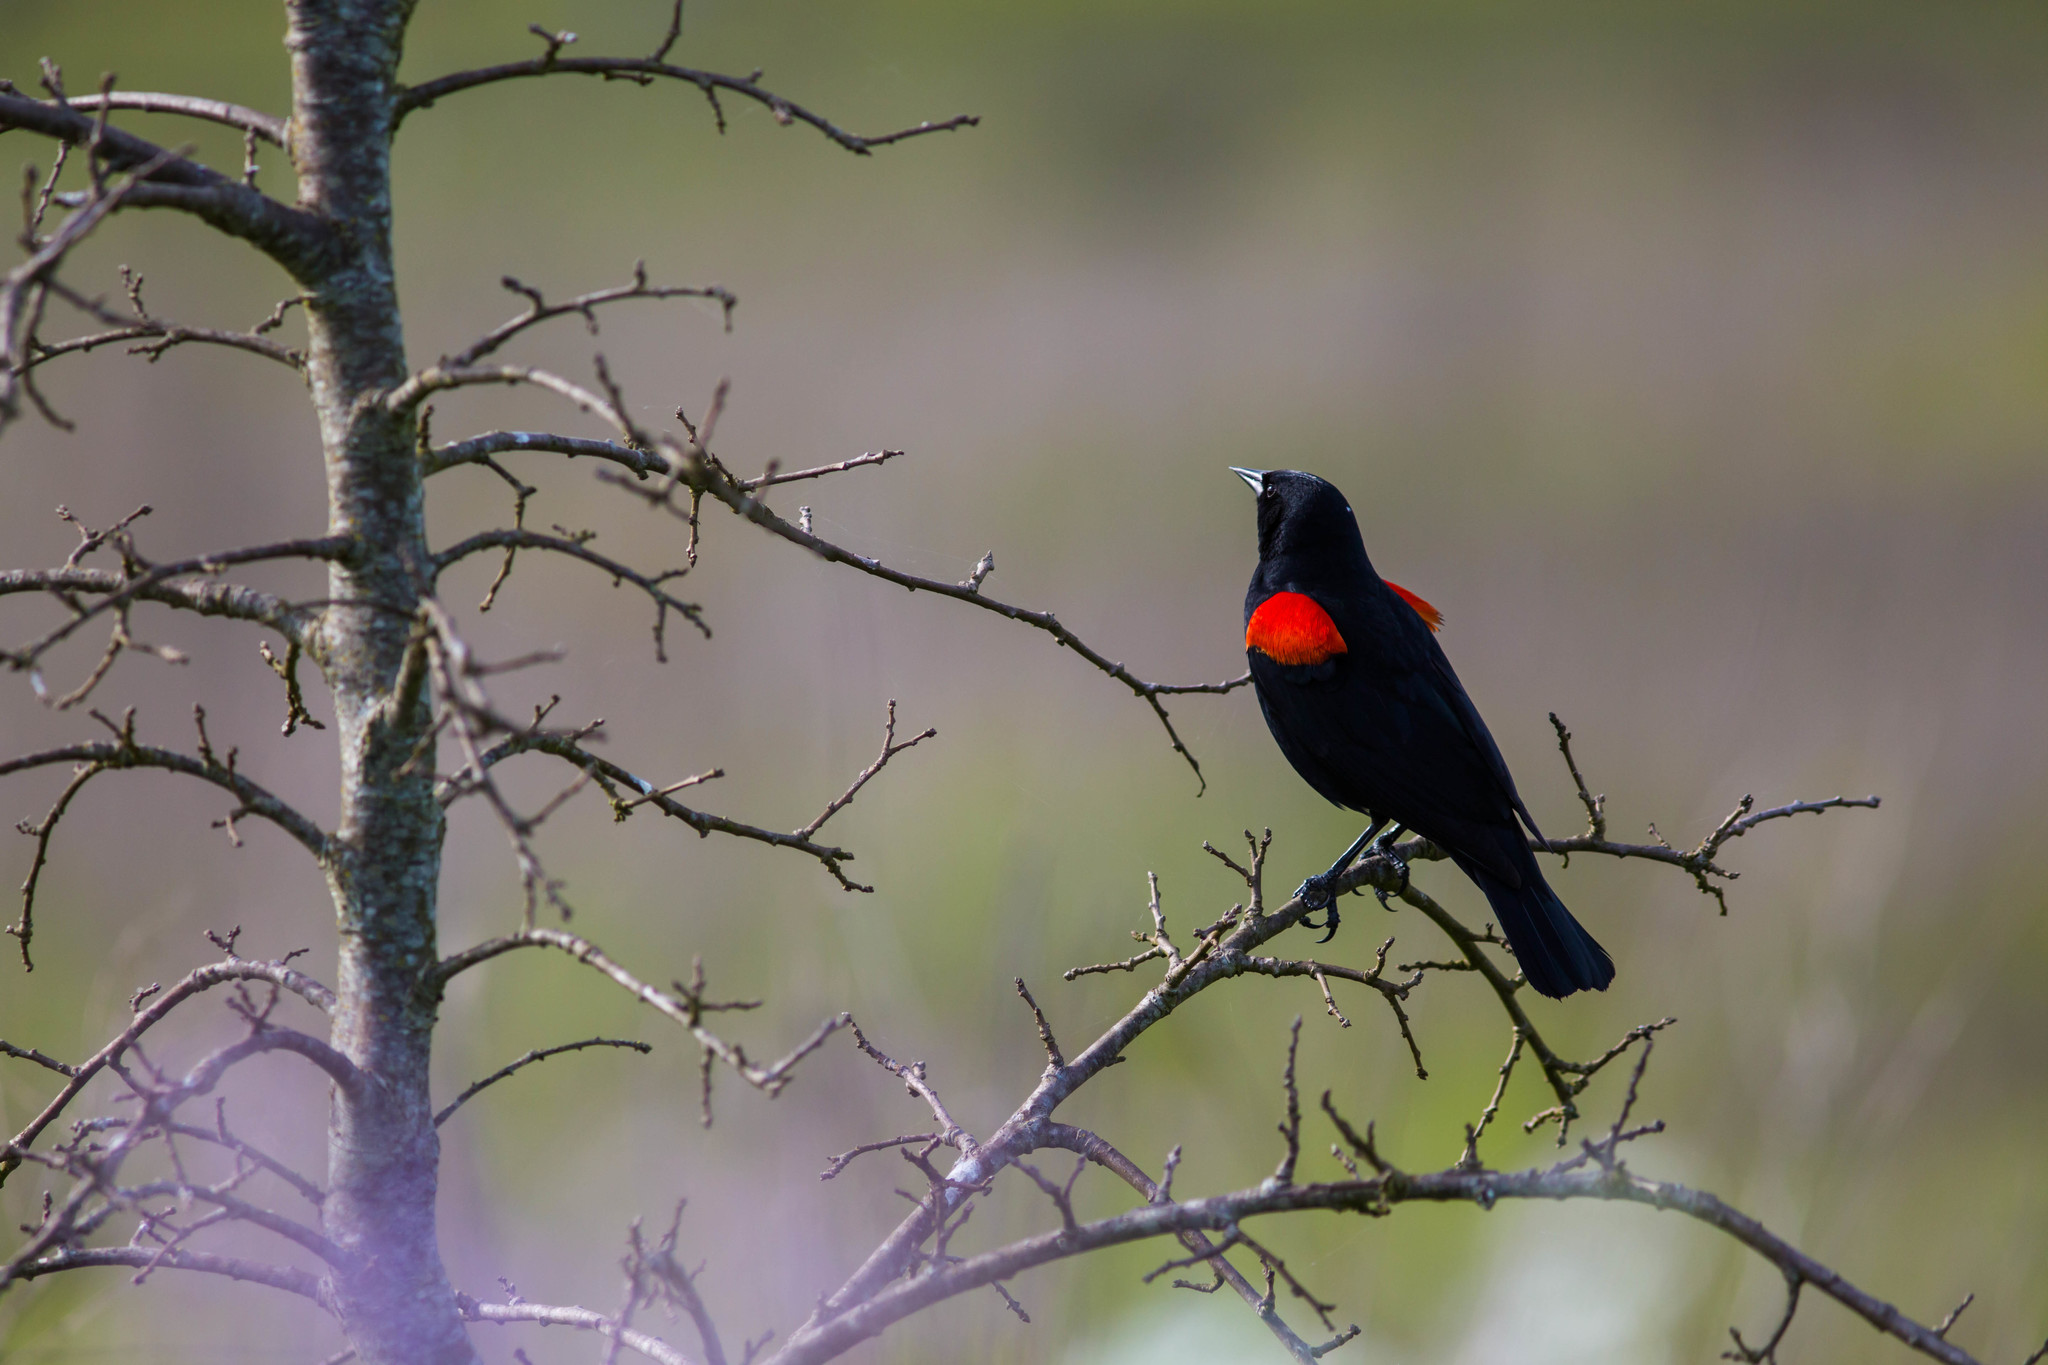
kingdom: Animalia
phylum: Chordata
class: Aves
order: Passeriformes
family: Icteridae
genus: Agelaius
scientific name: Agelaius phoeniceus
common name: Red-winged blackbird
